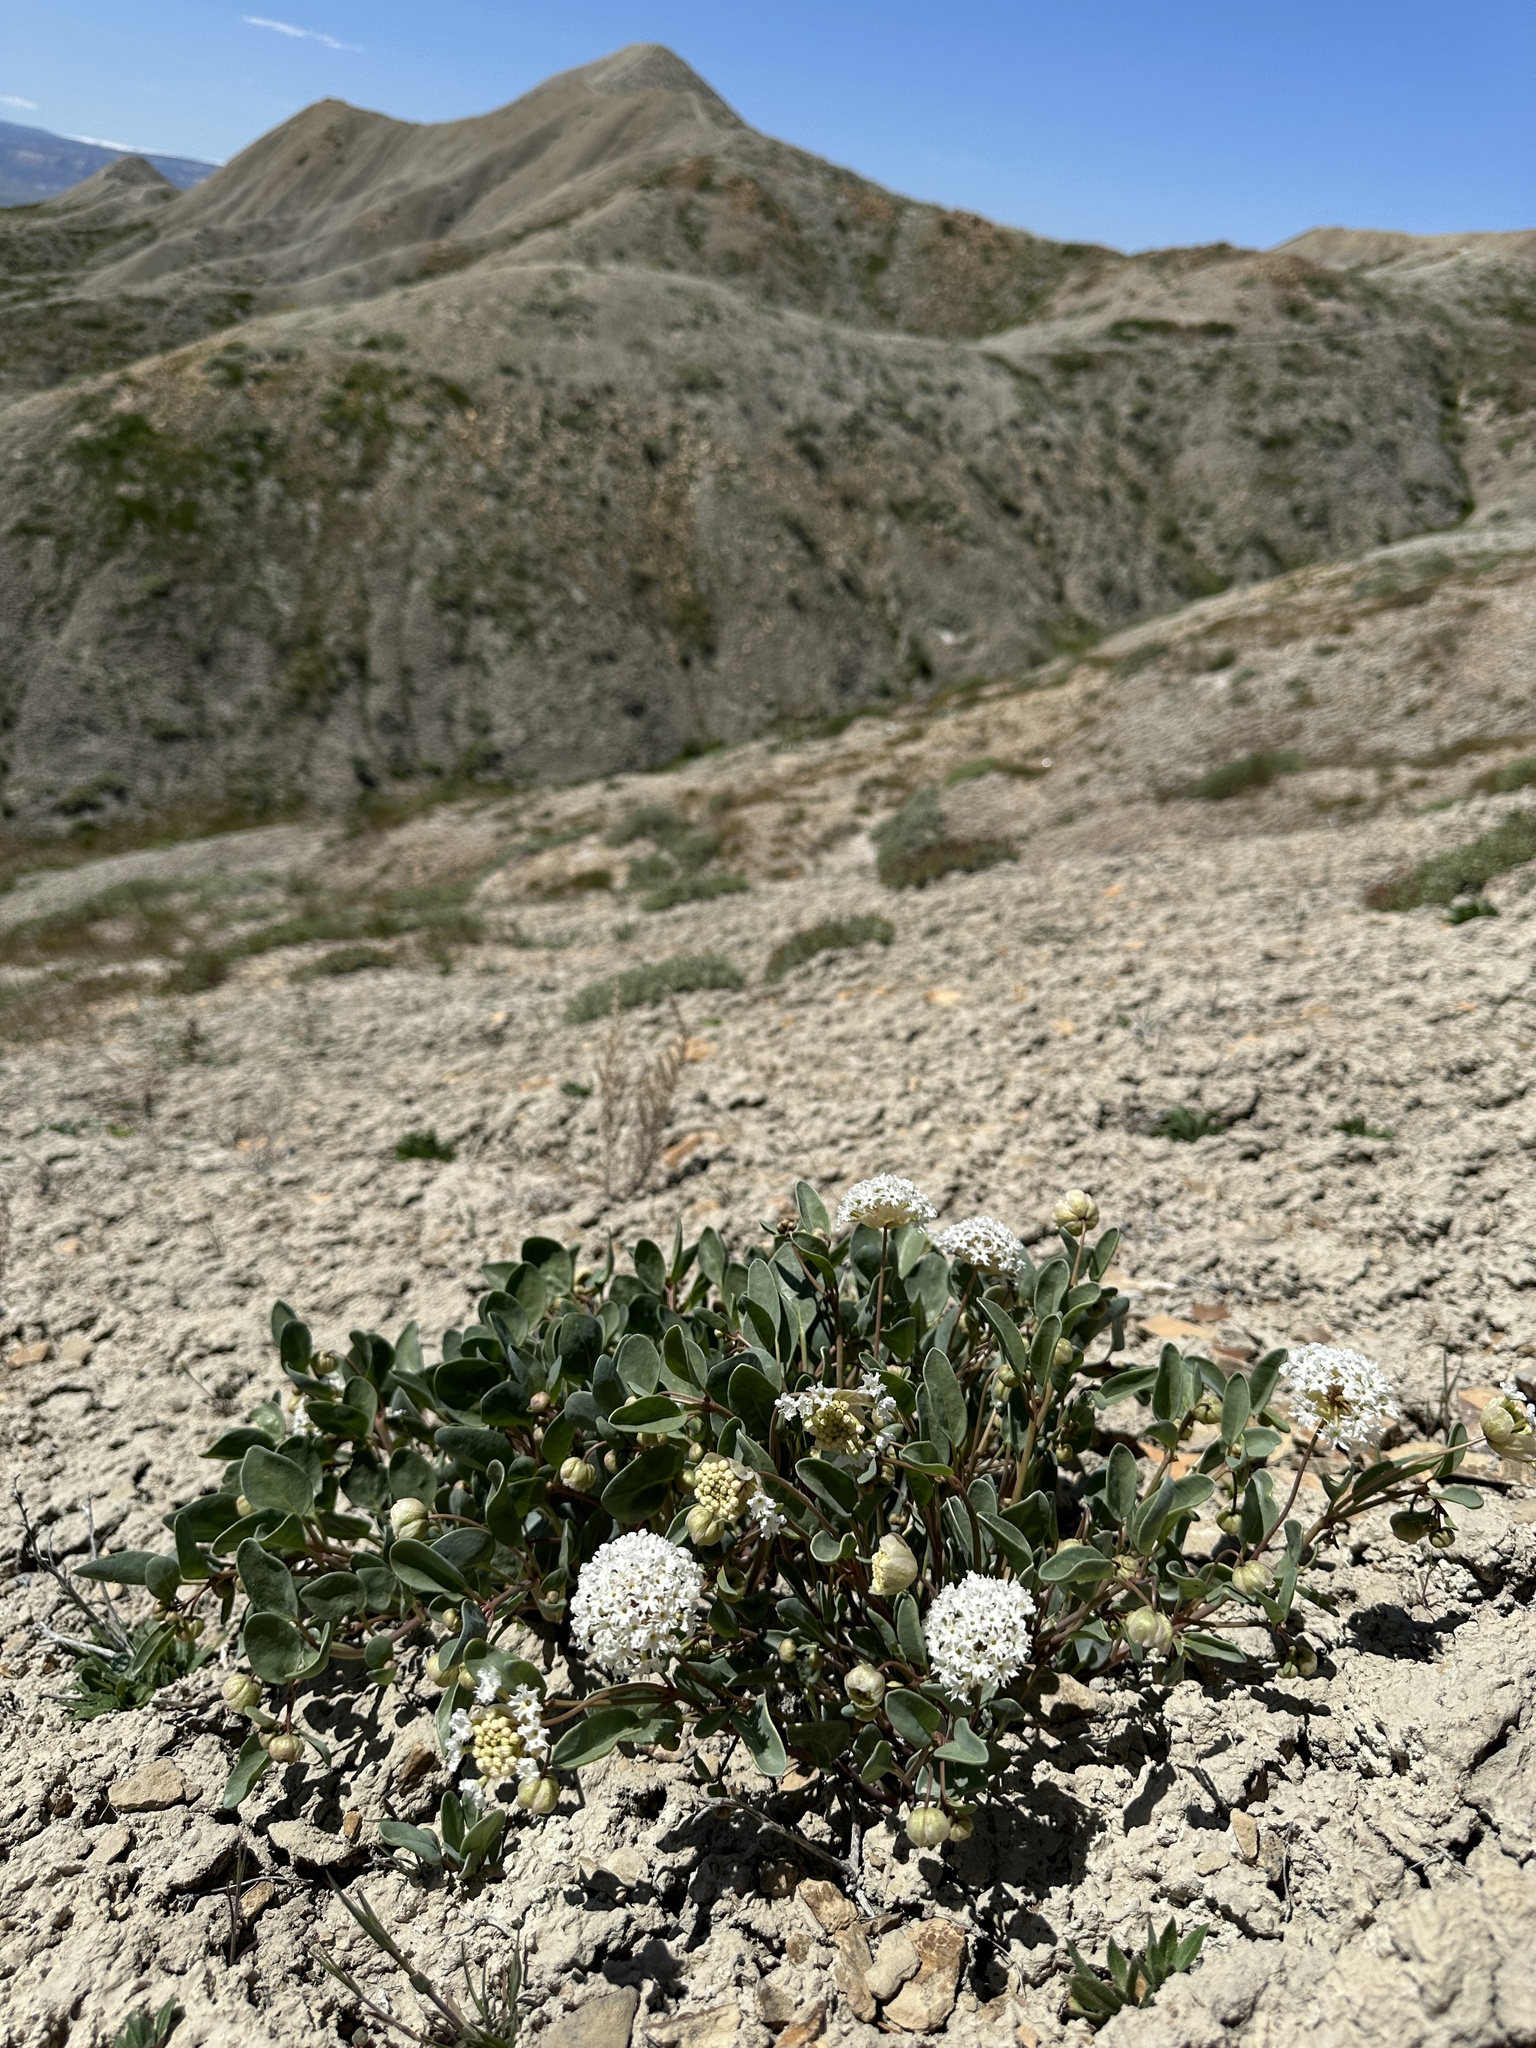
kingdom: Plantae
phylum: Tracheophyta
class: Magnoliopsida
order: Caryophyllales
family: Nyctaginaceae
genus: Abronia
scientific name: Abronia glabrifolia
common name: Clay sand verbena
